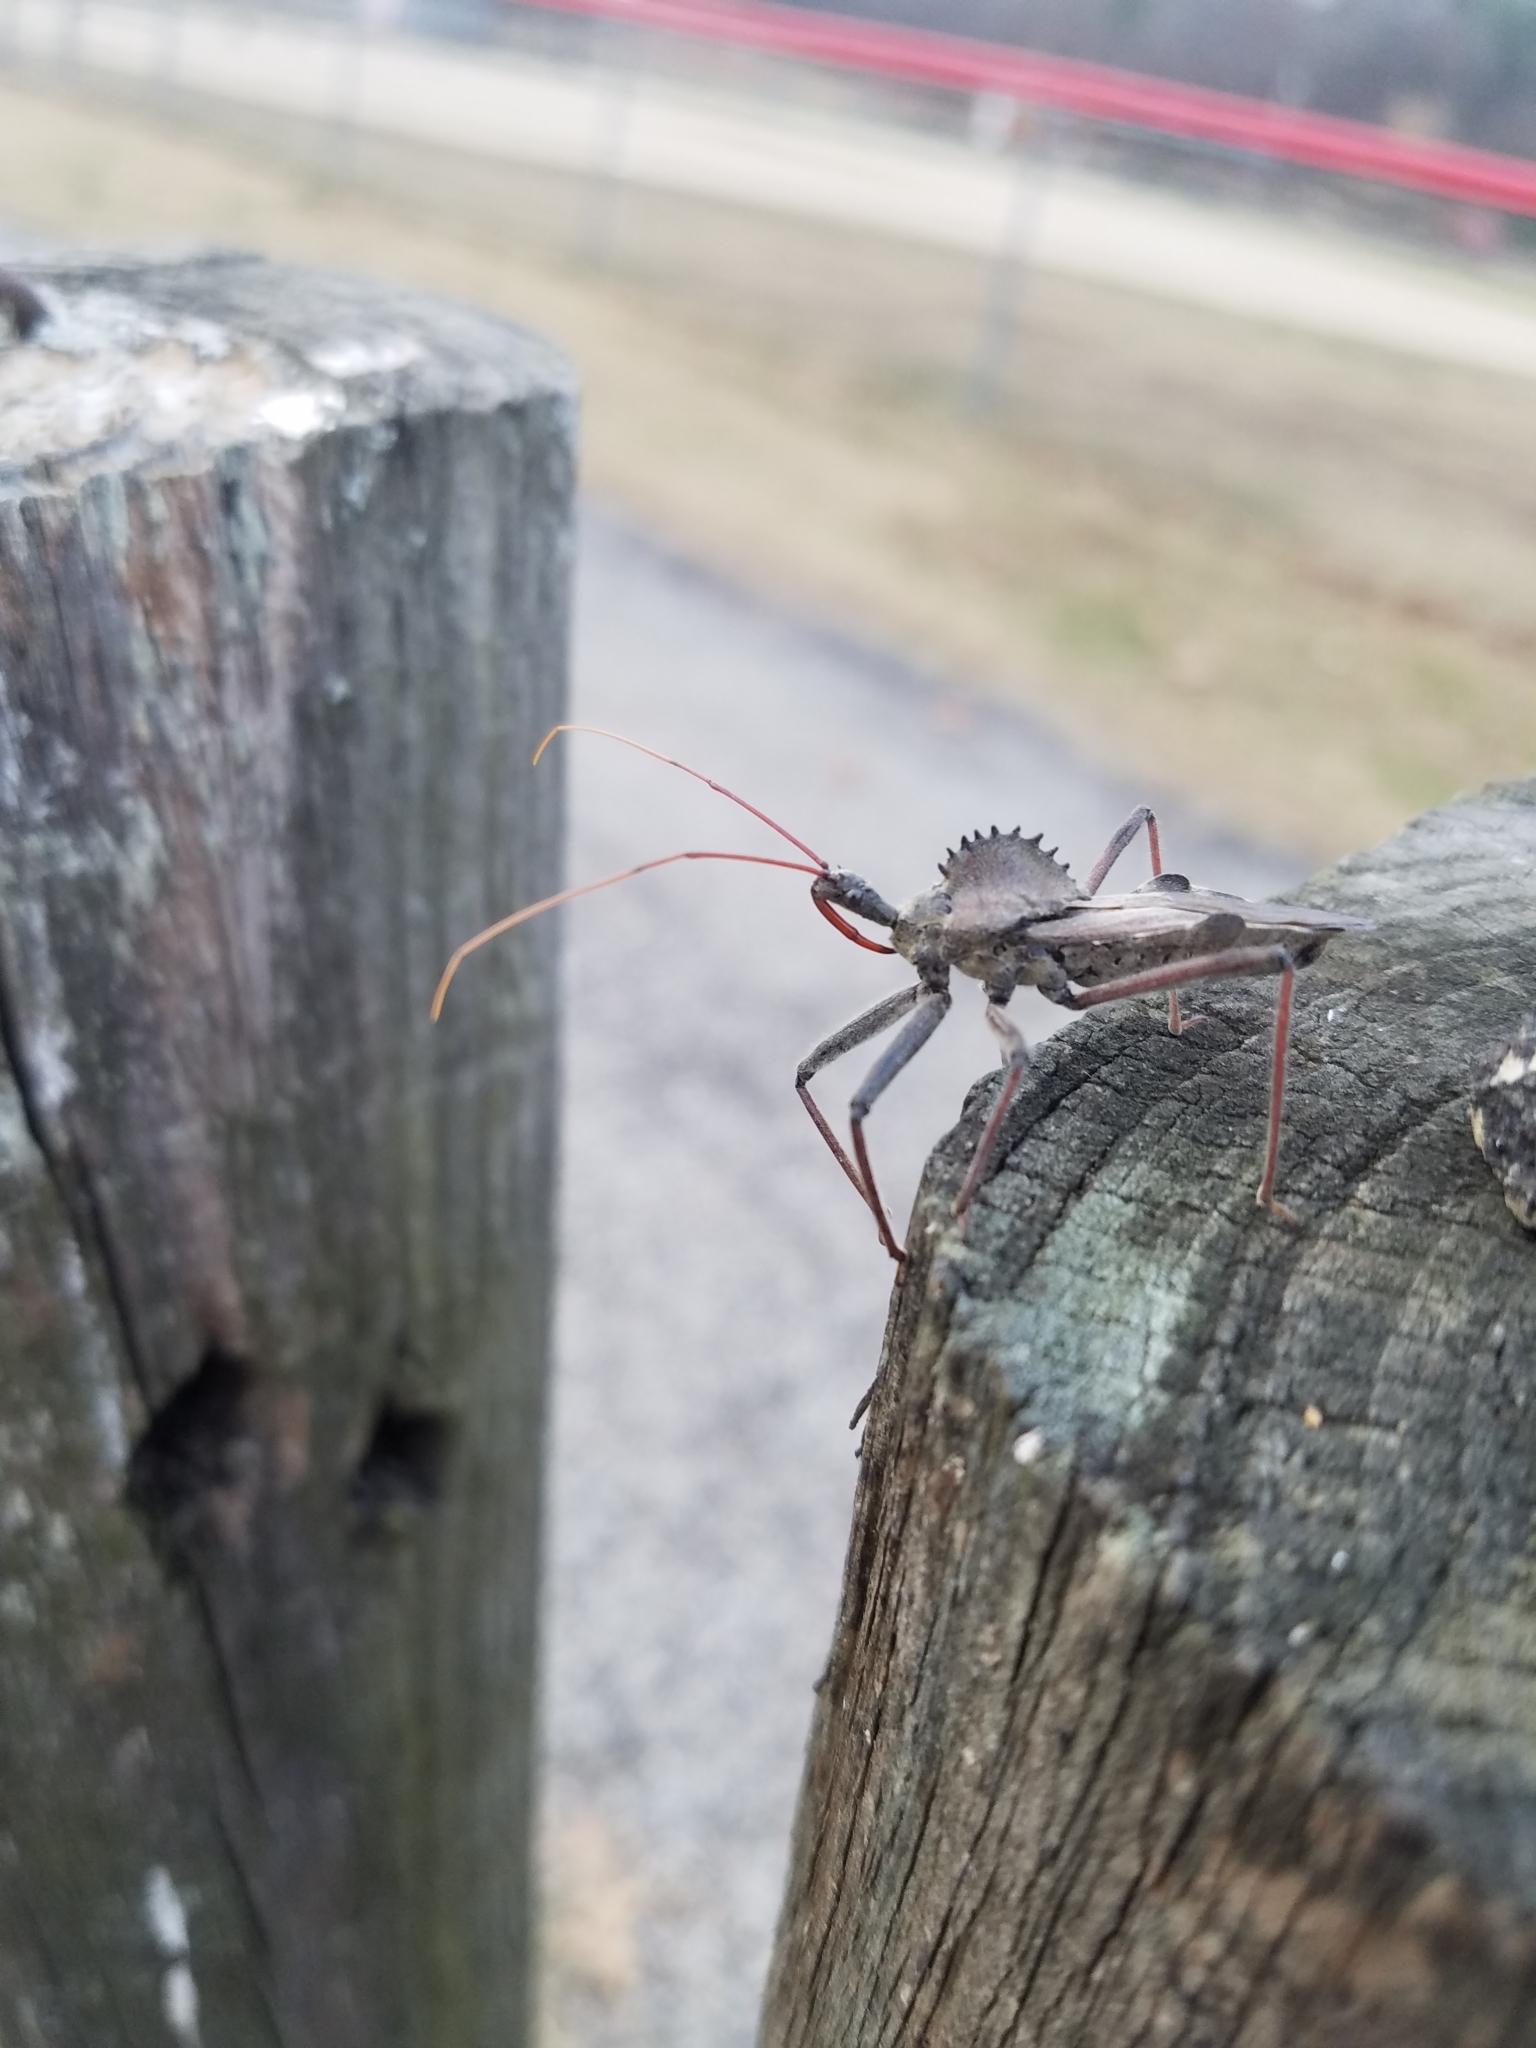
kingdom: Animalia
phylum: Arthropoda
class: Insecta
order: Hemiptera
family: Reduviidae
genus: Arilus
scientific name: Arilus cristatus
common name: North american wheel bug
